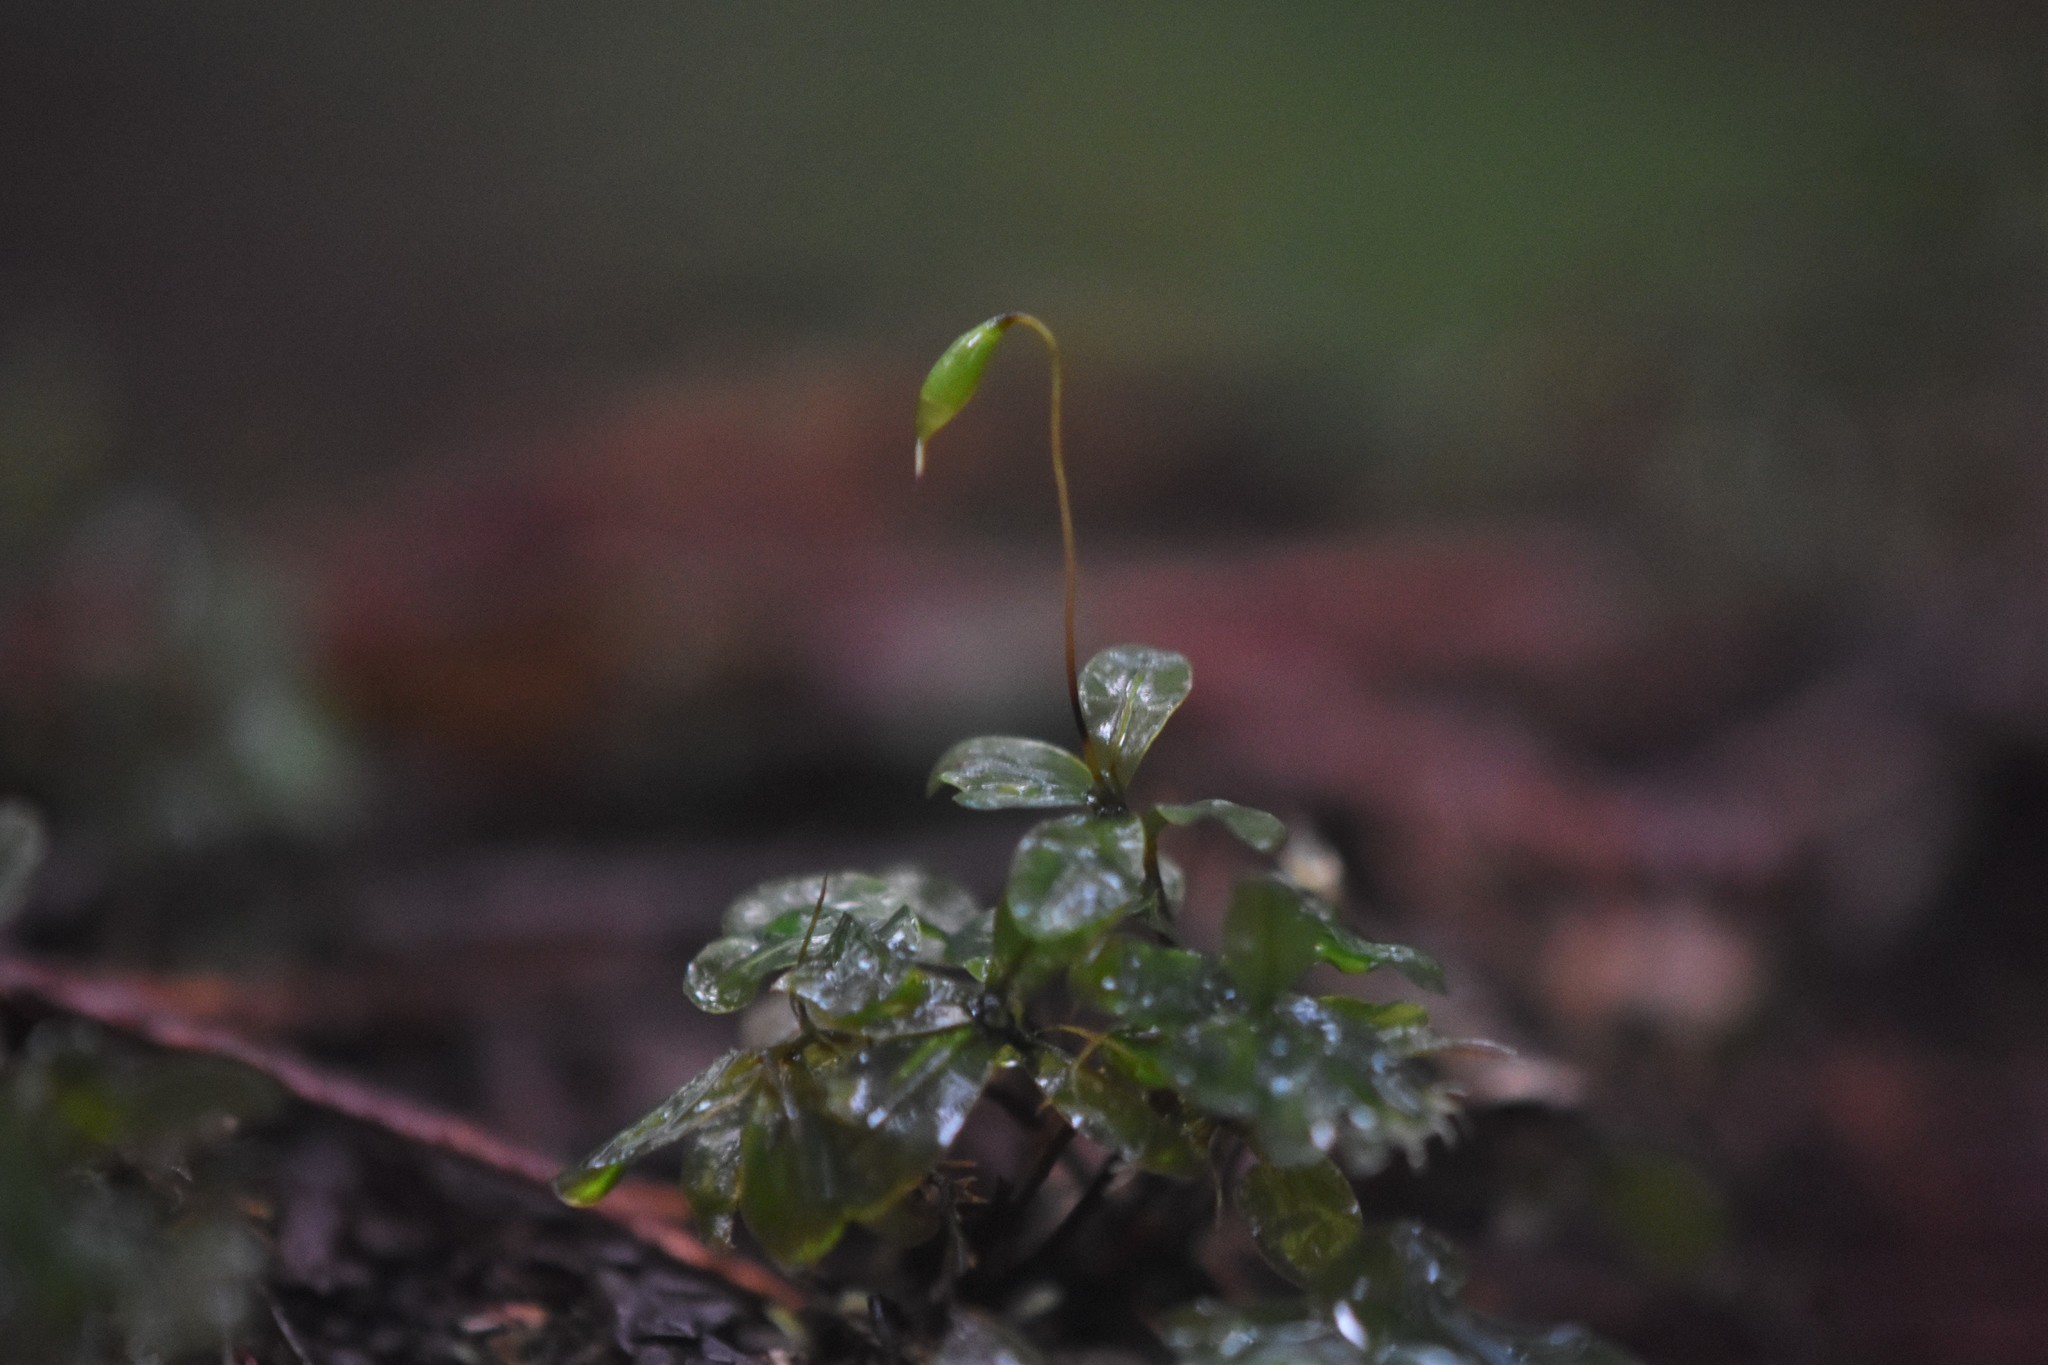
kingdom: Plantae
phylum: Bryophyta
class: Bryopsida
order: Bryales
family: Mniaceae
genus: Rhizomnium
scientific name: Rhizomnium glabrescens
